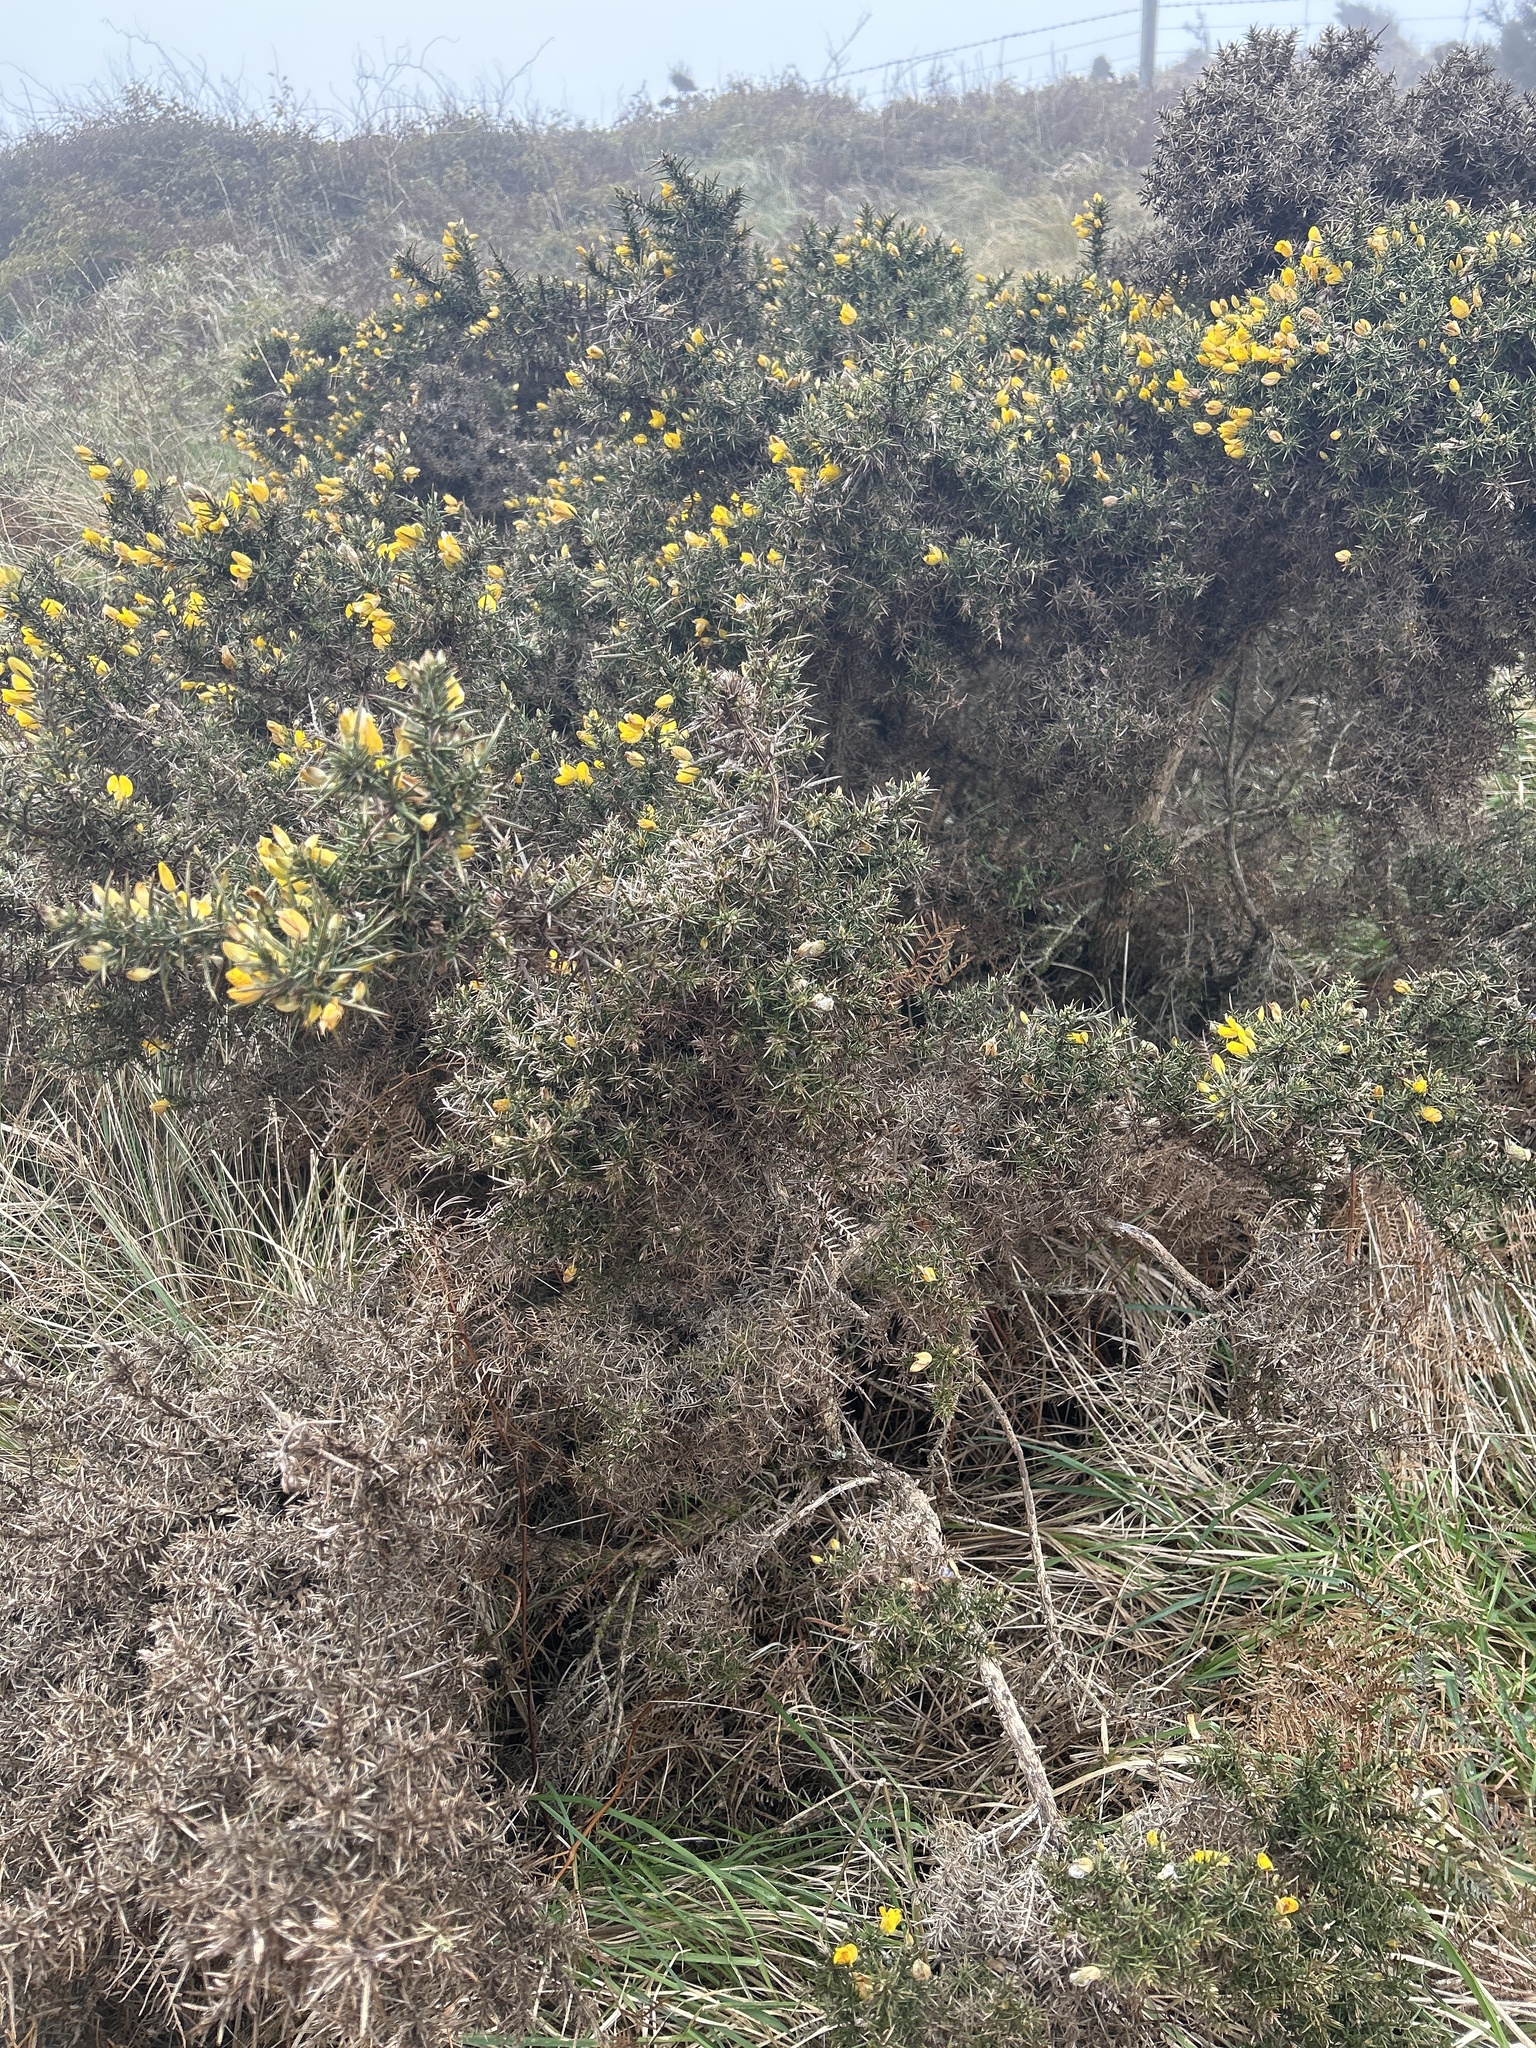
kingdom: Plantae
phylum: Tracheophyta
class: Magnoliopsida
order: Fabales
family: Fabaceae
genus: Ulex
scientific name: Ulex europaeus
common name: Common gorse
